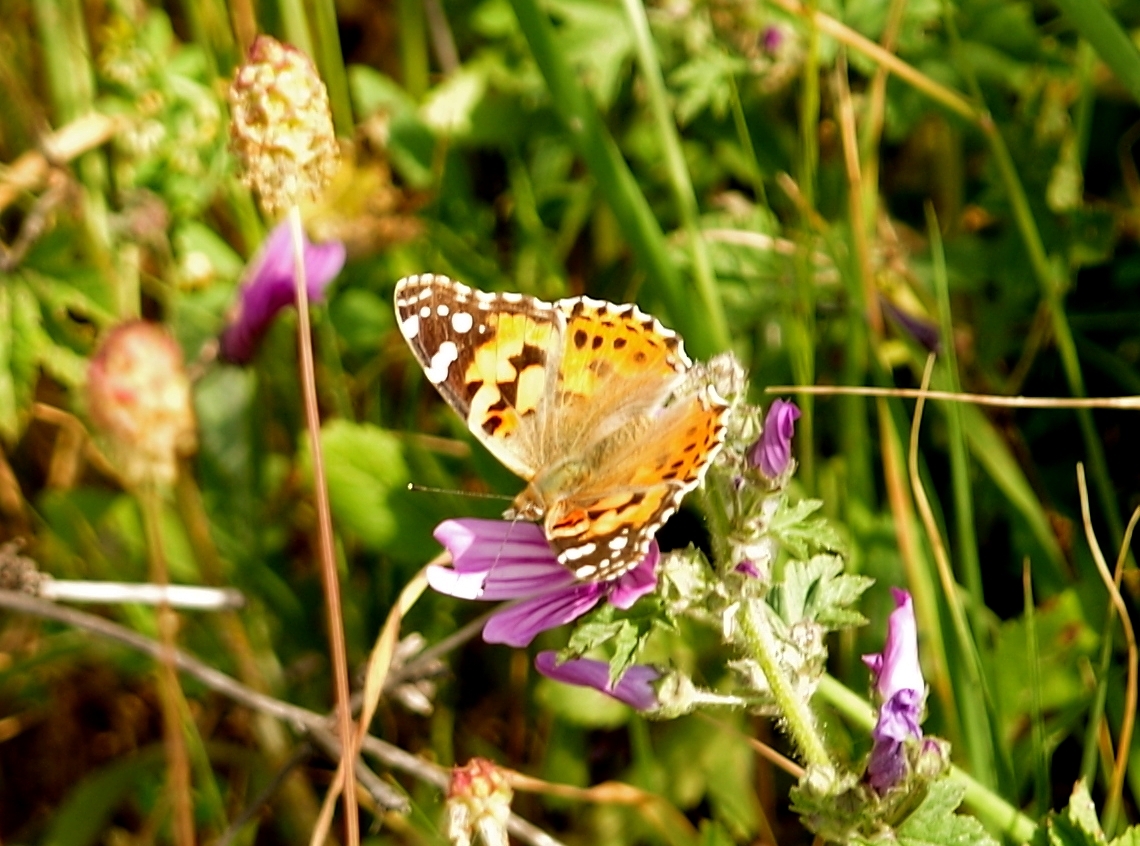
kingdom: Animalia
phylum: Arthropoda
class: Insecta
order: Lepidoptera
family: Nymphalidae
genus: Vanessa
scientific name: Vanessa cardui
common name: Painted lady
